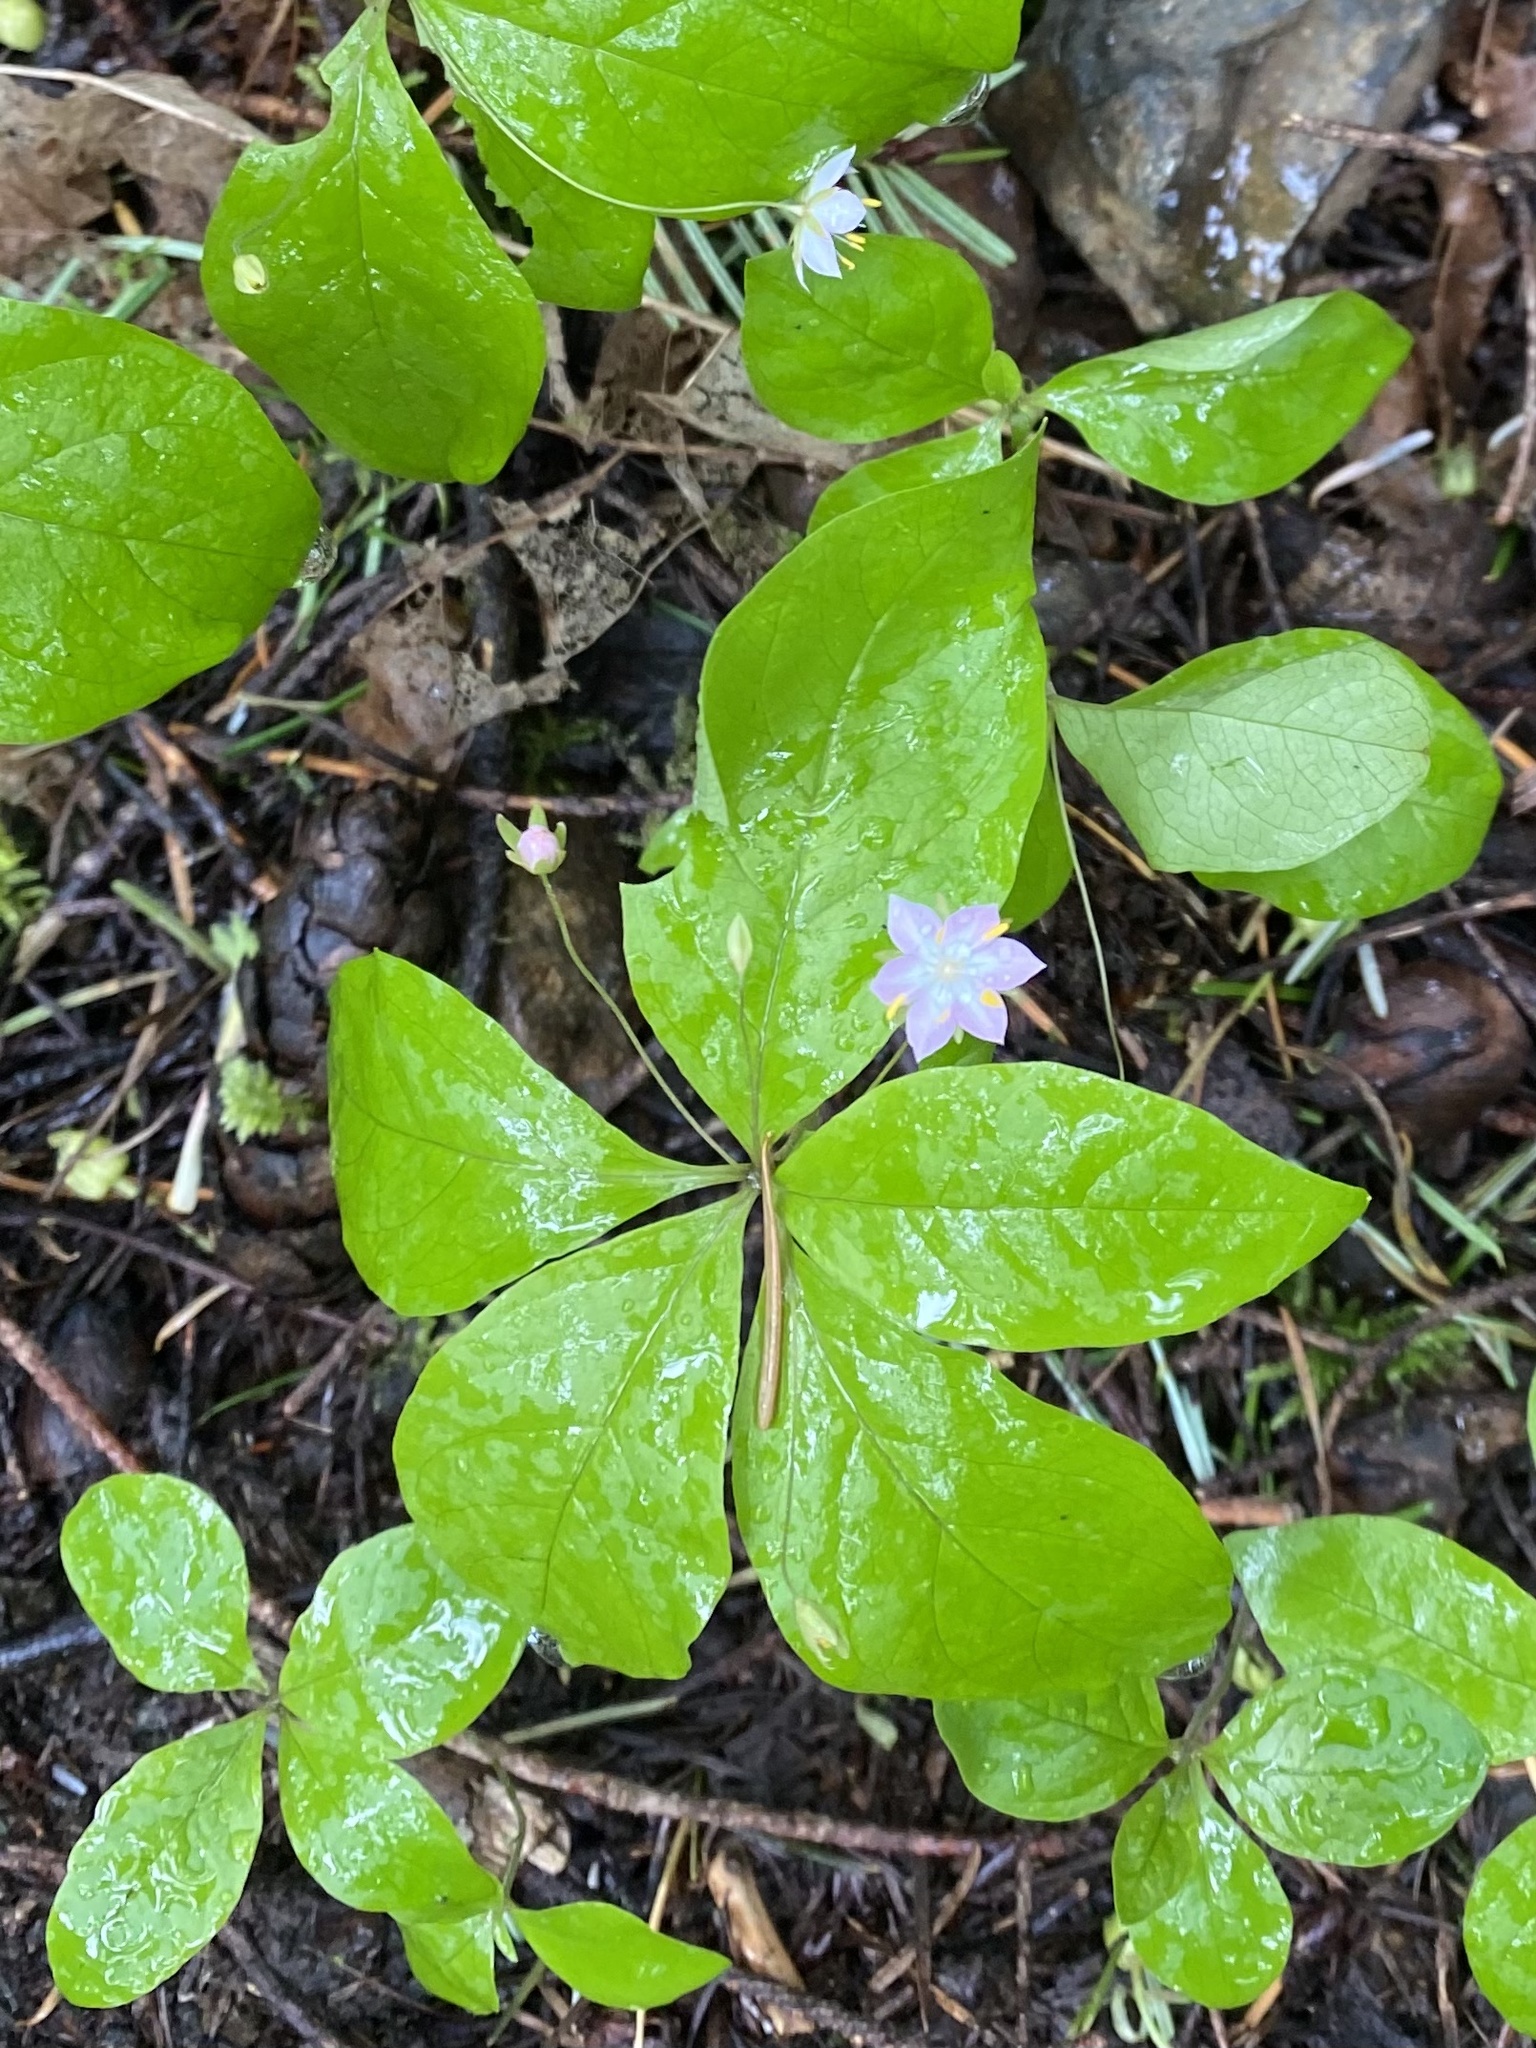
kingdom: Plantae
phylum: Tracheophyta
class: Magnoliopsida
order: Ericales
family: Primulaceae
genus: Lysimachia
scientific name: Lysimachia latifolia
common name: Pacific starflower
